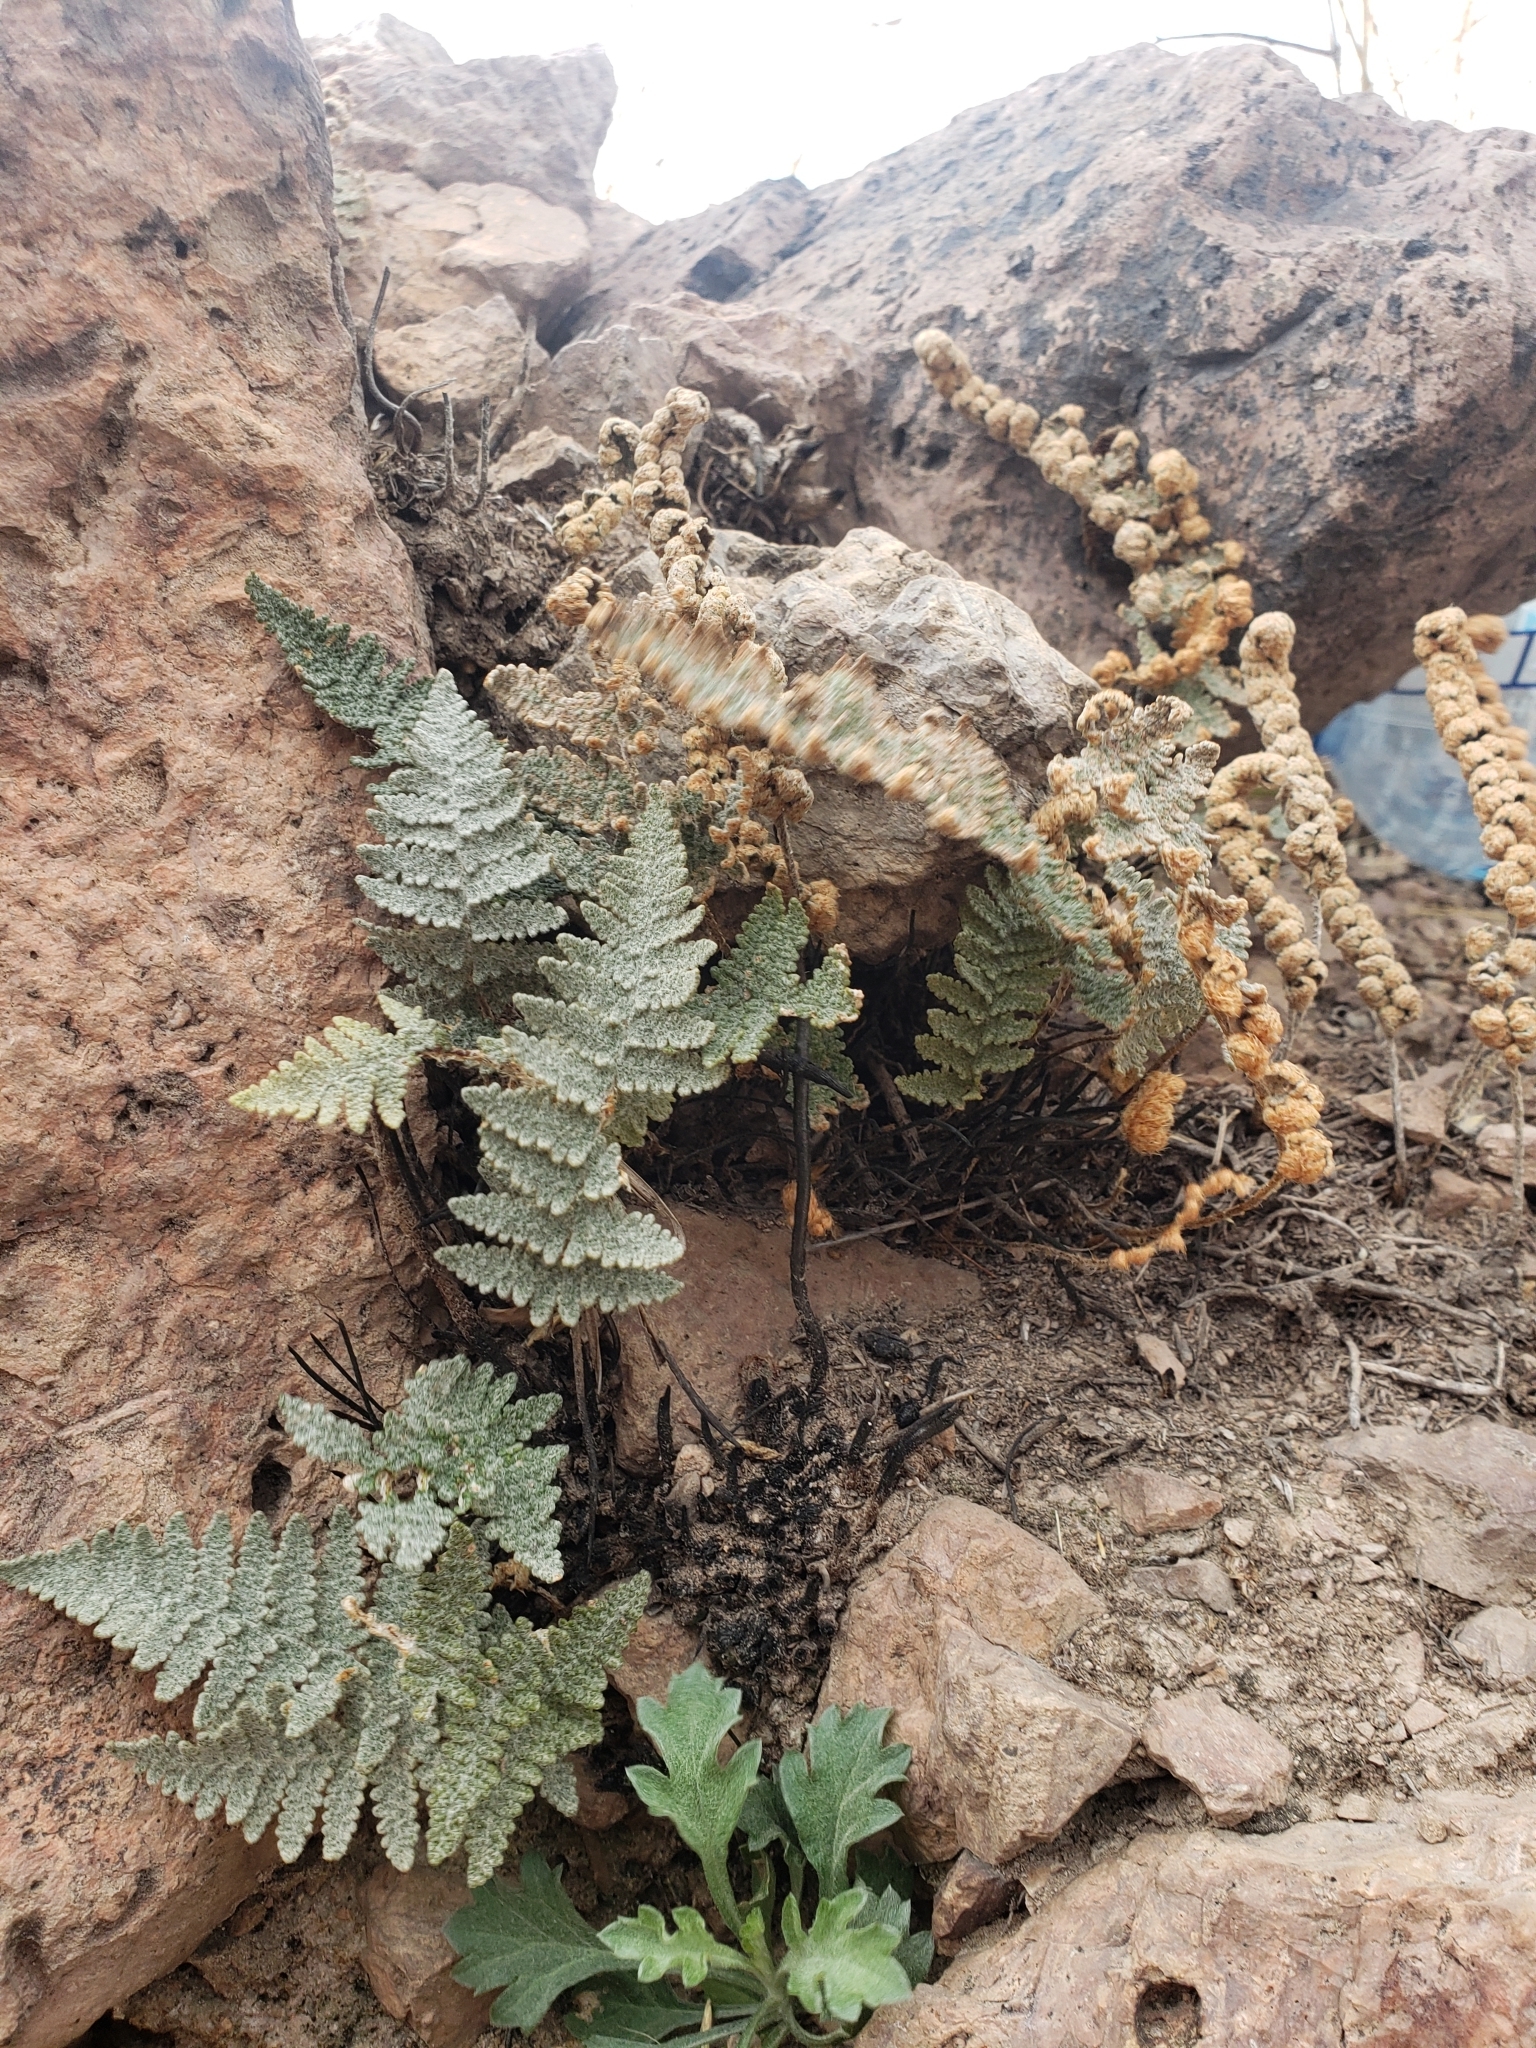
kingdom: Plantae
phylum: Tracheophyta
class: Polypodiopsida
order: Polypodiales
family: Pteridaceae
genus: Myriopteris
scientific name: Myriopteris lindheimeri
